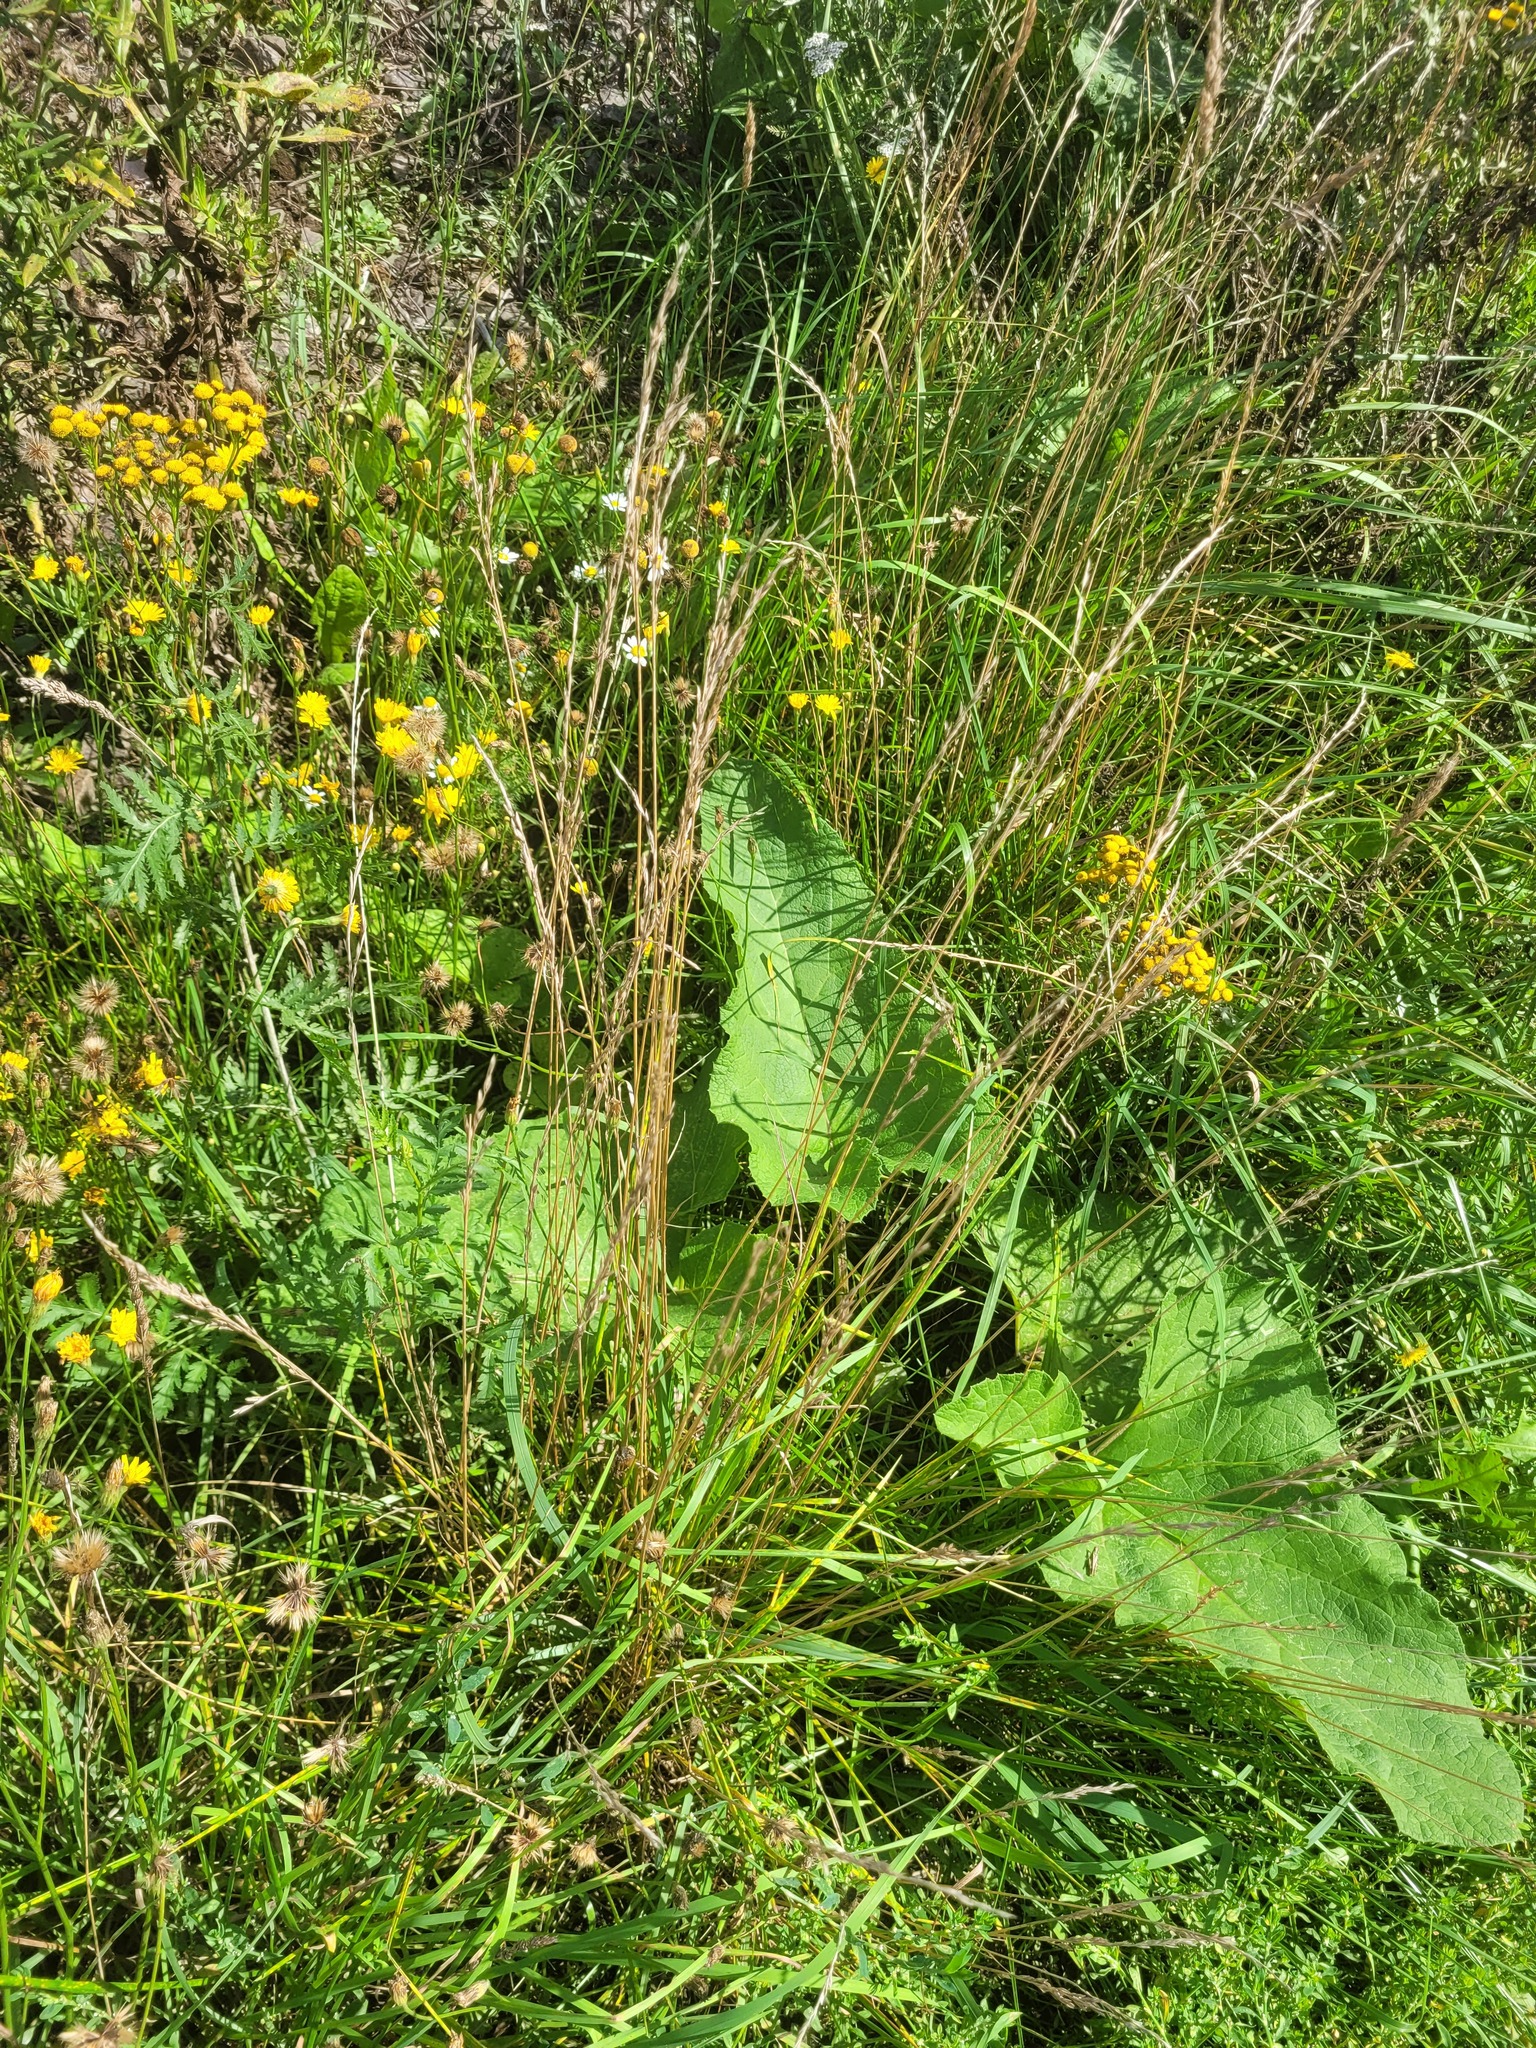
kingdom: Plantae
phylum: Tracheophyta
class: Liliopsida
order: Poales
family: Poaceae
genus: Lolium
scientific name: Lolium pratense
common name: Dover grass
